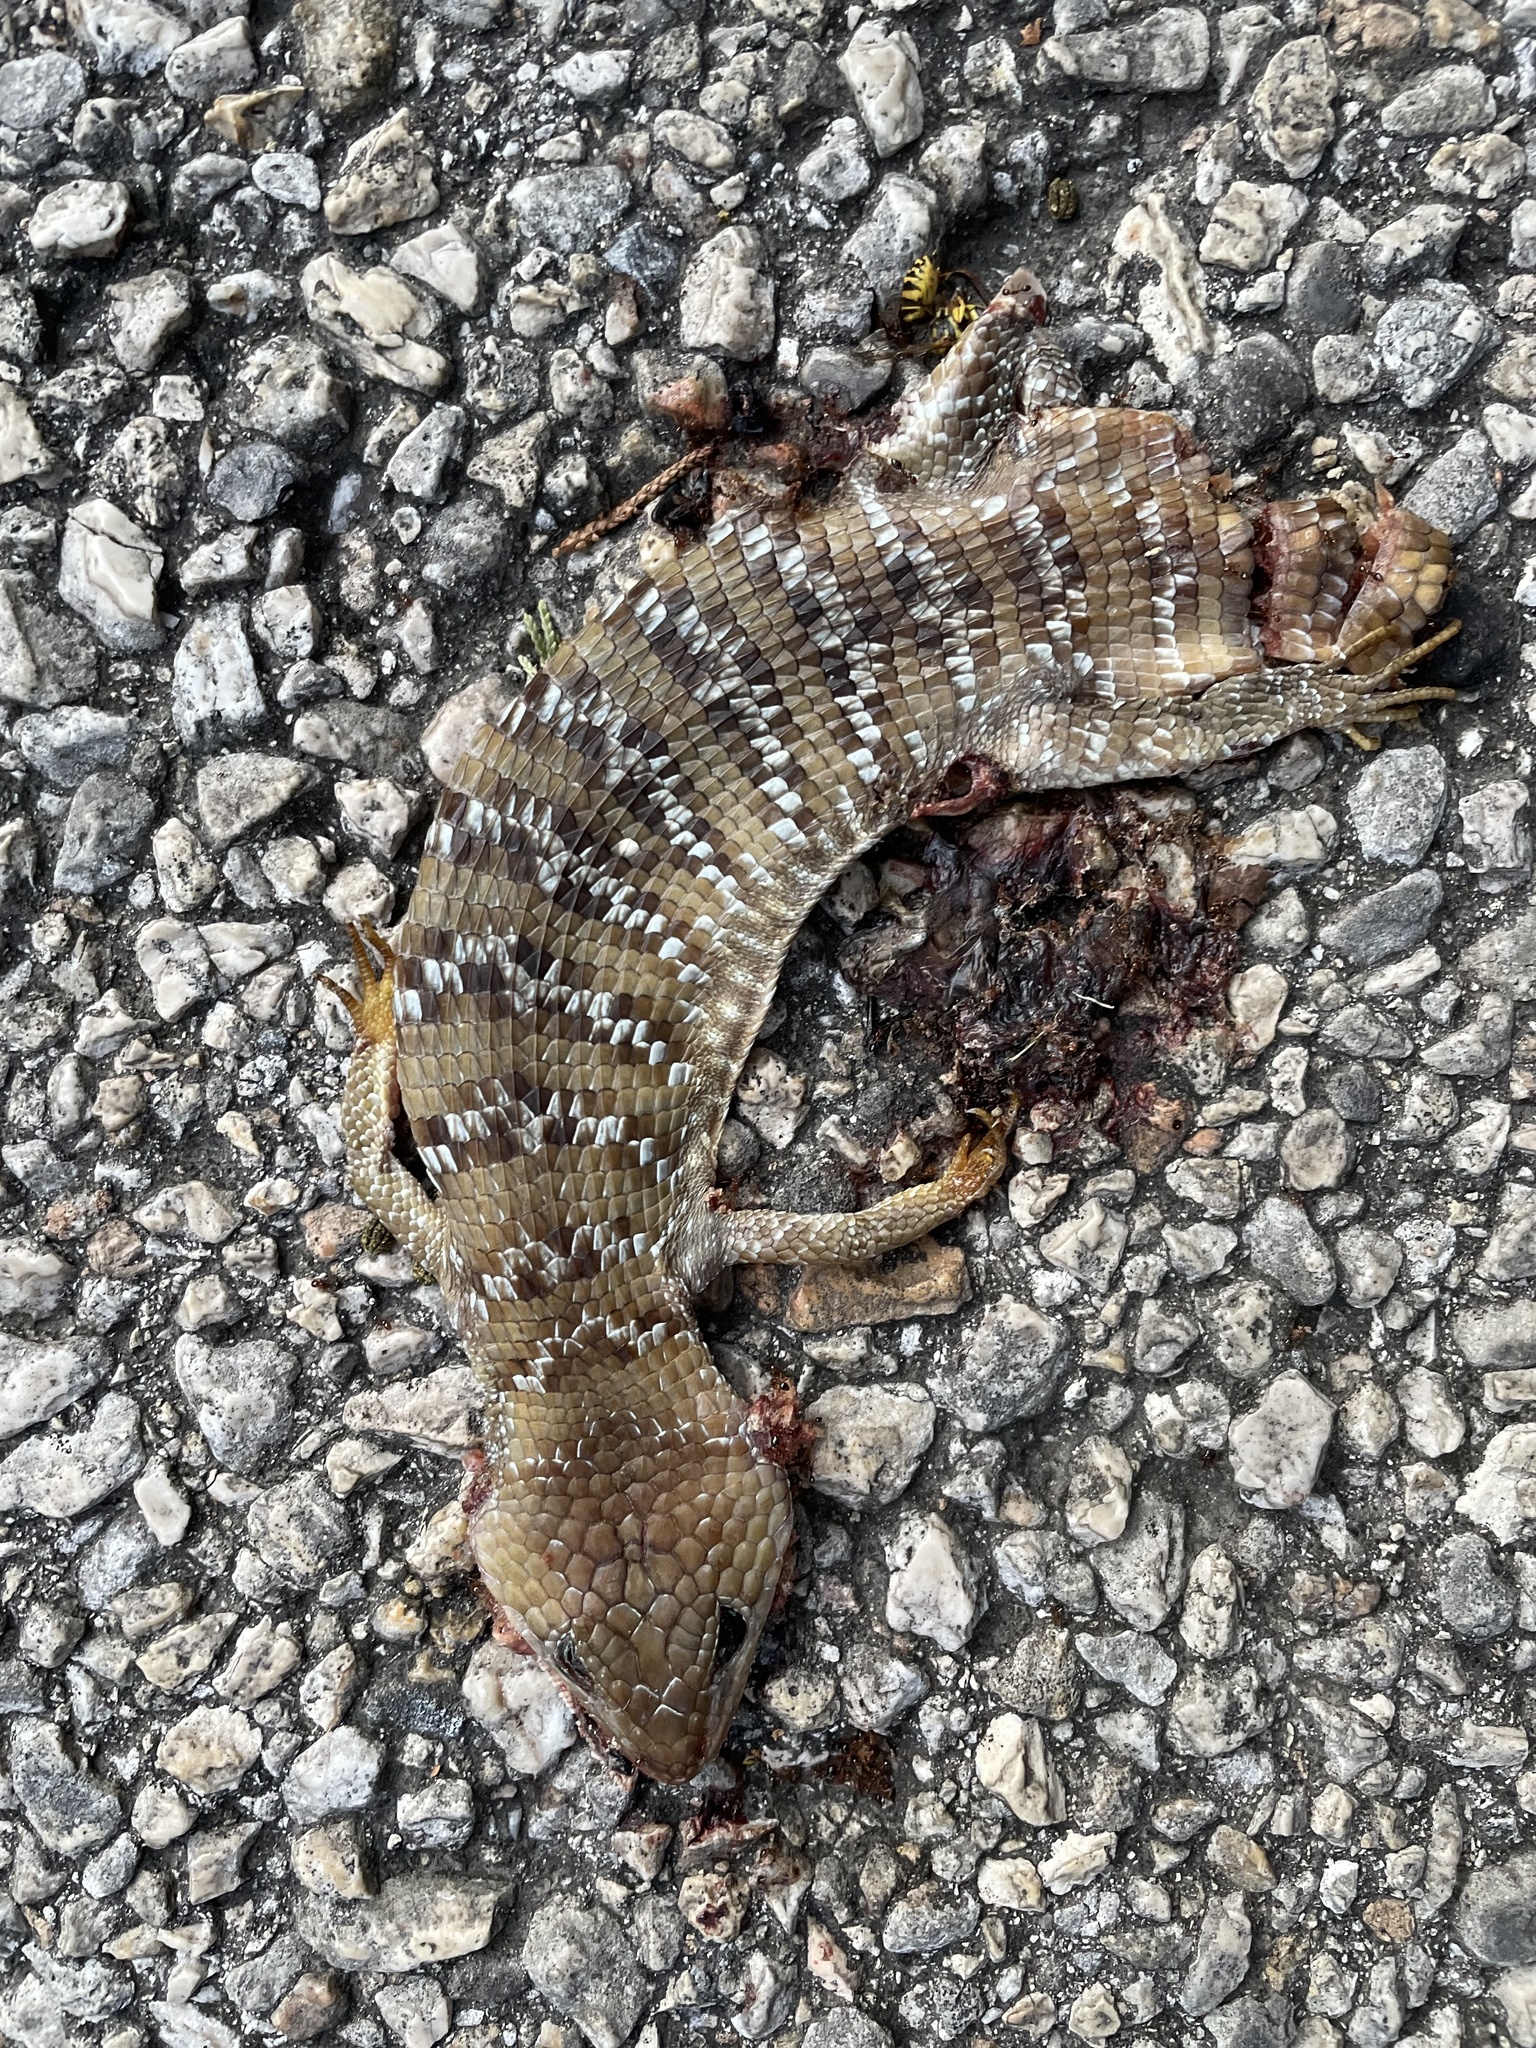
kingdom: Animalia
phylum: Chordata
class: Squamata
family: Anguidae
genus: Gerrhonotus
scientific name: Gerrhonotus infernalis
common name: Texas alligator lizard
